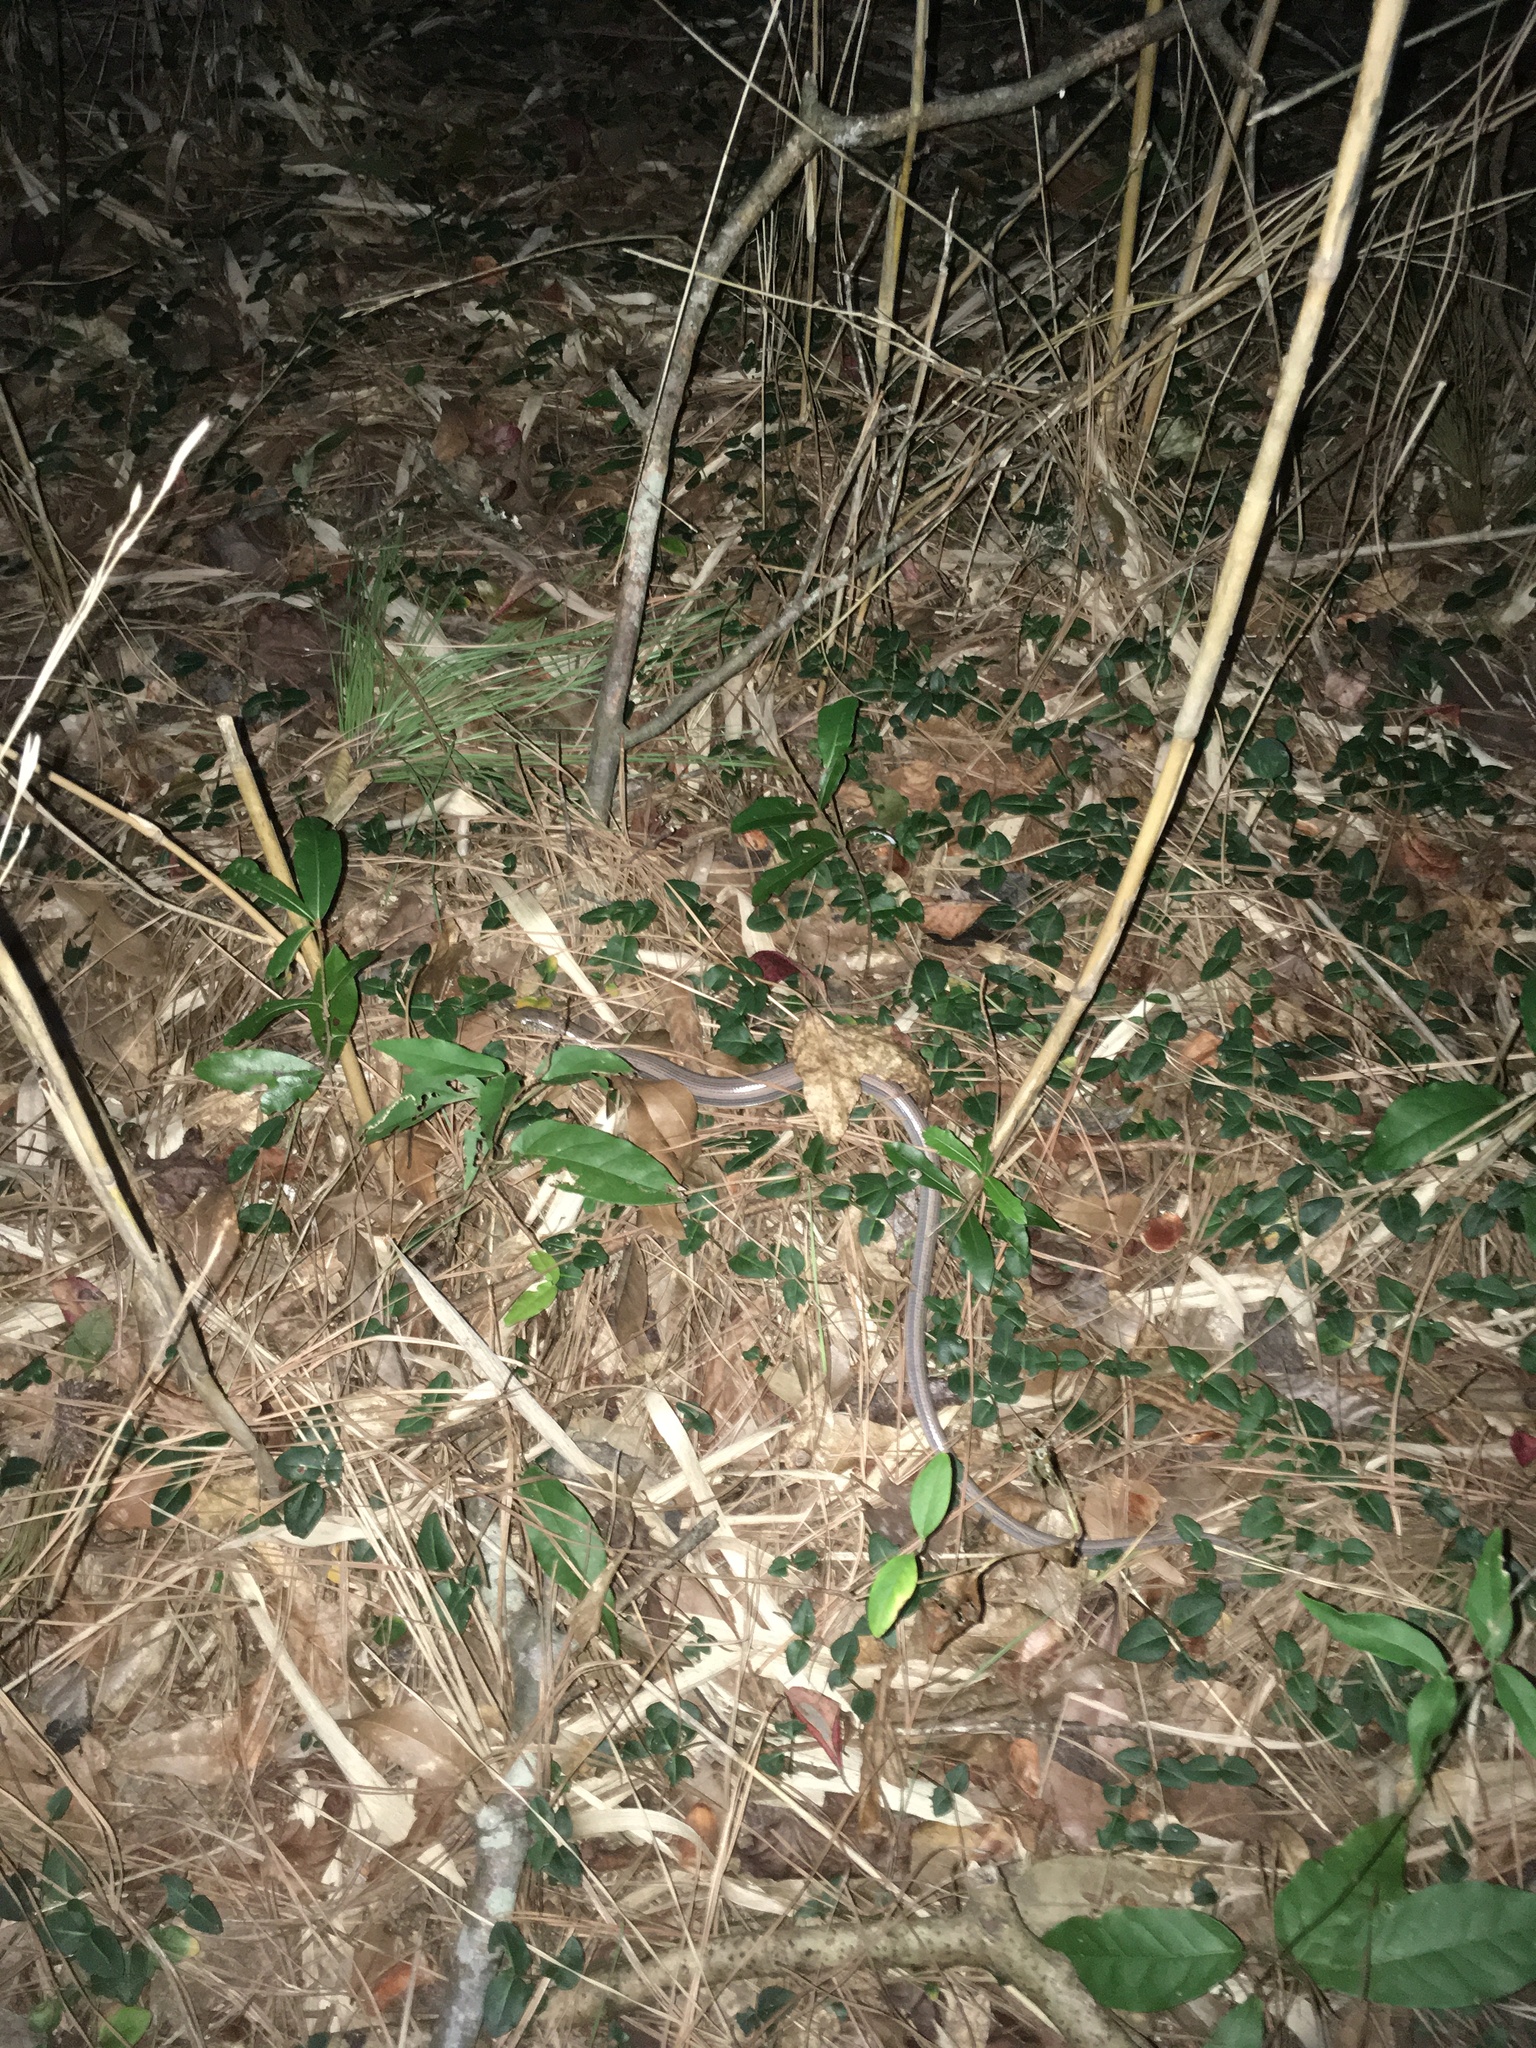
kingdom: Animalia
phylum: Chordata
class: Squamata
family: Anguidae
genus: Ophisaurus
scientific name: Ophisaurus ventralis
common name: Eastern glass lizard
